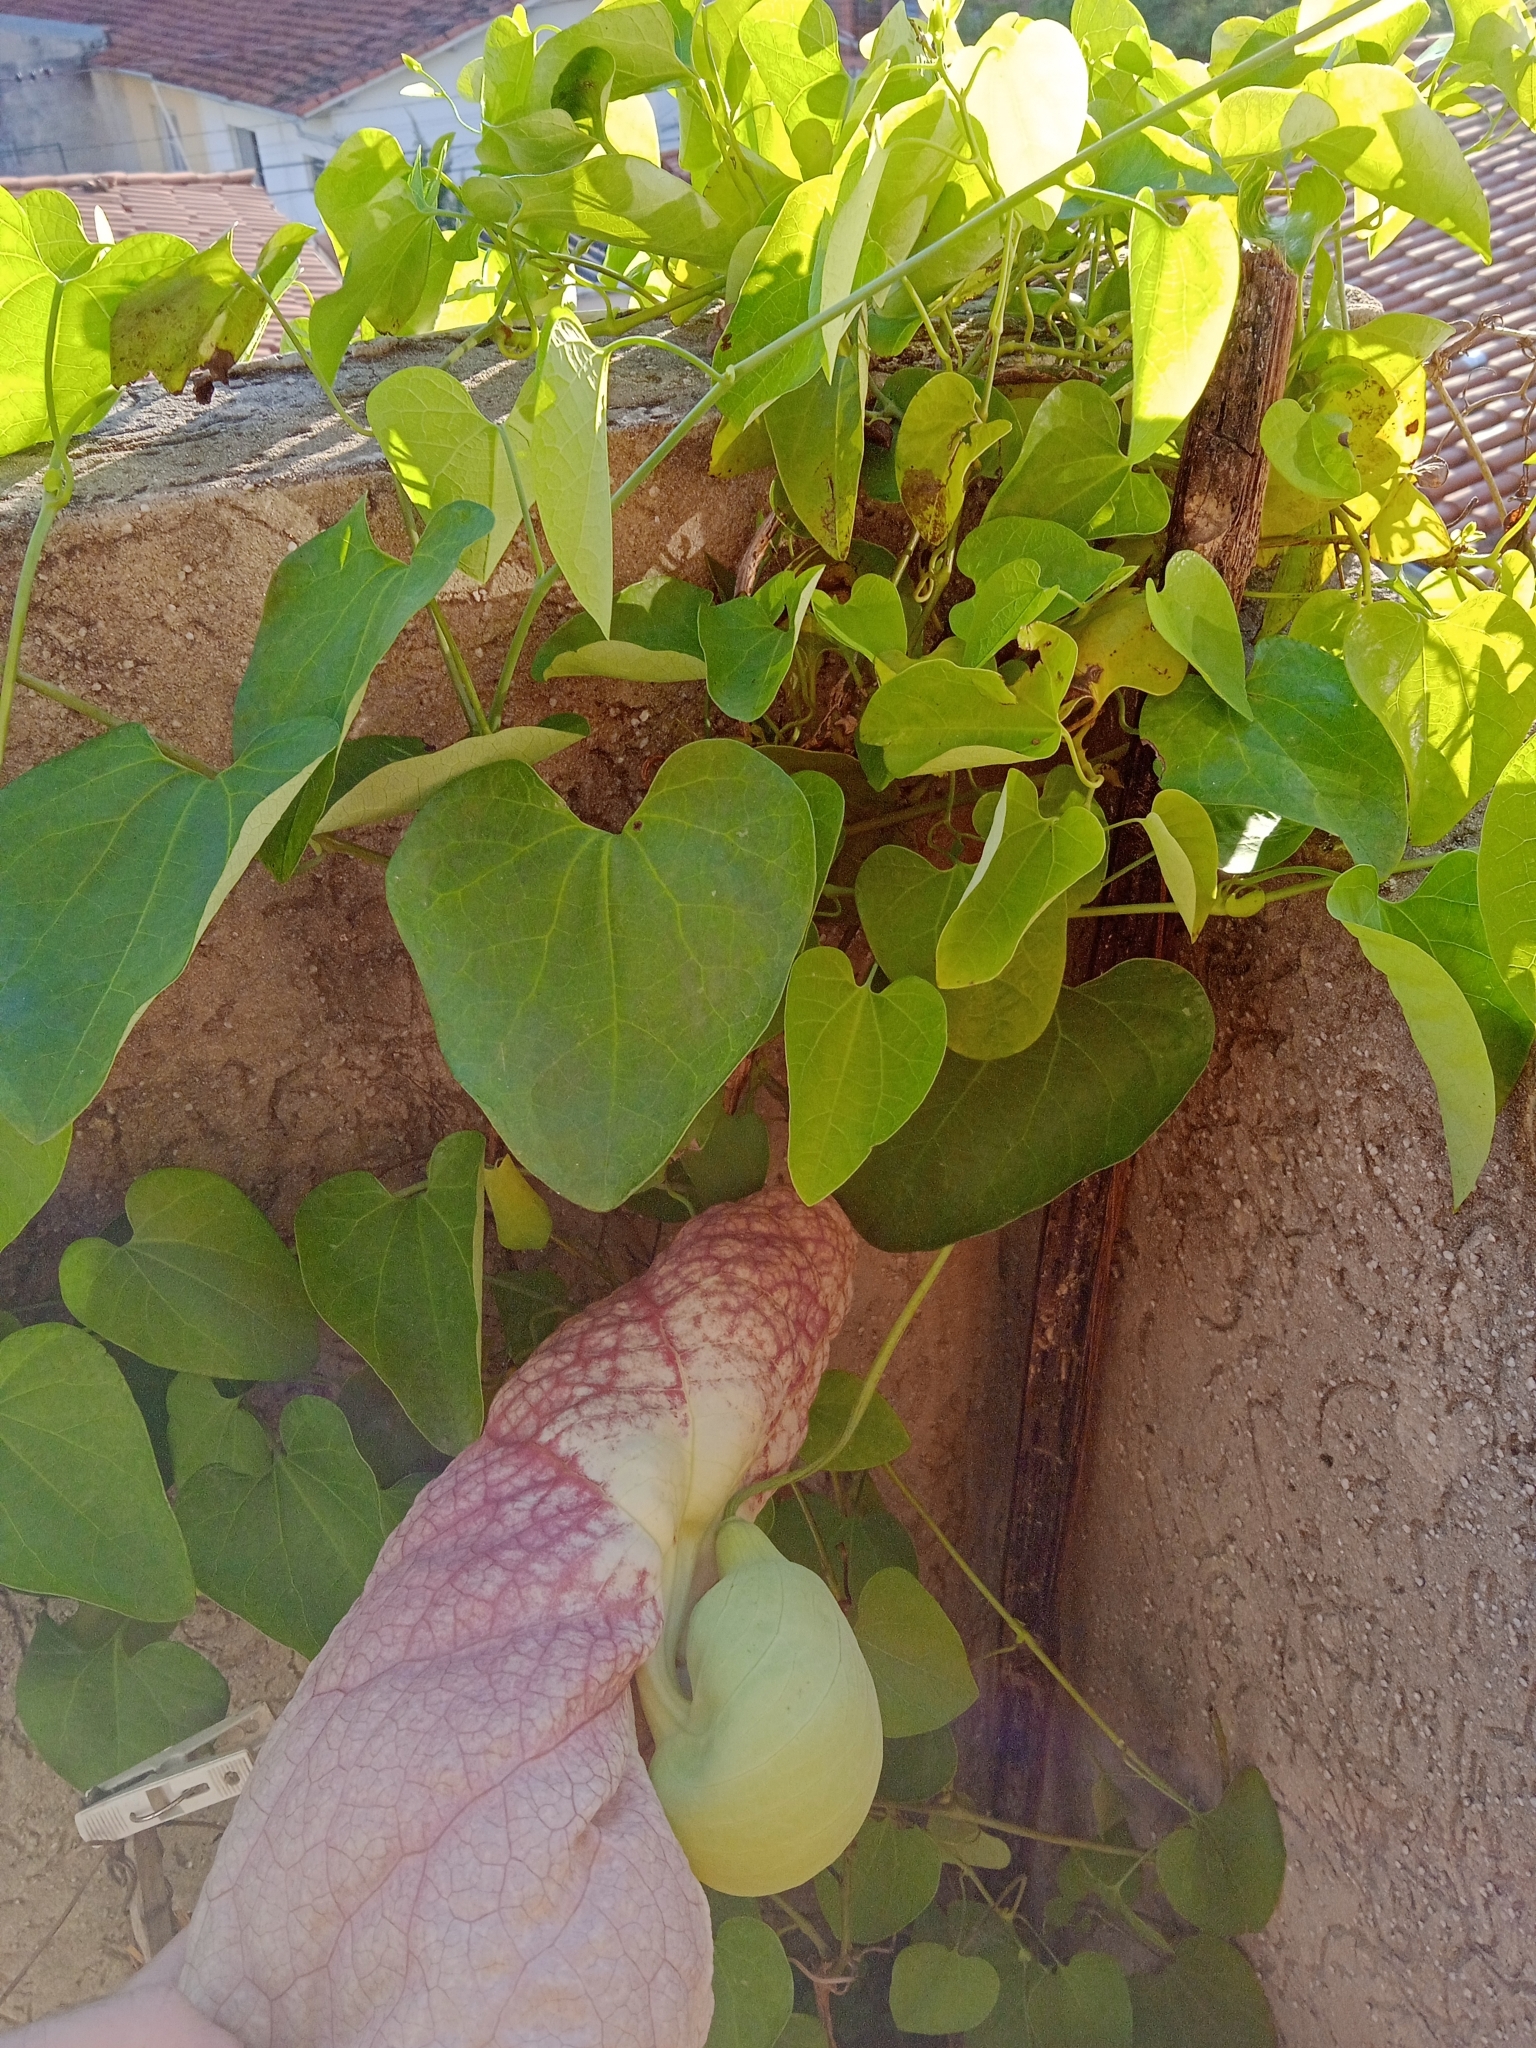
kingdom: Plantae
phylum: Tracheophyta
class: Magnoliopsida
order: Piperales
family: Aristolochiaceae
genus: Aristolochia
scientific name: Aristolochia gigantea
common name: Duckflower
